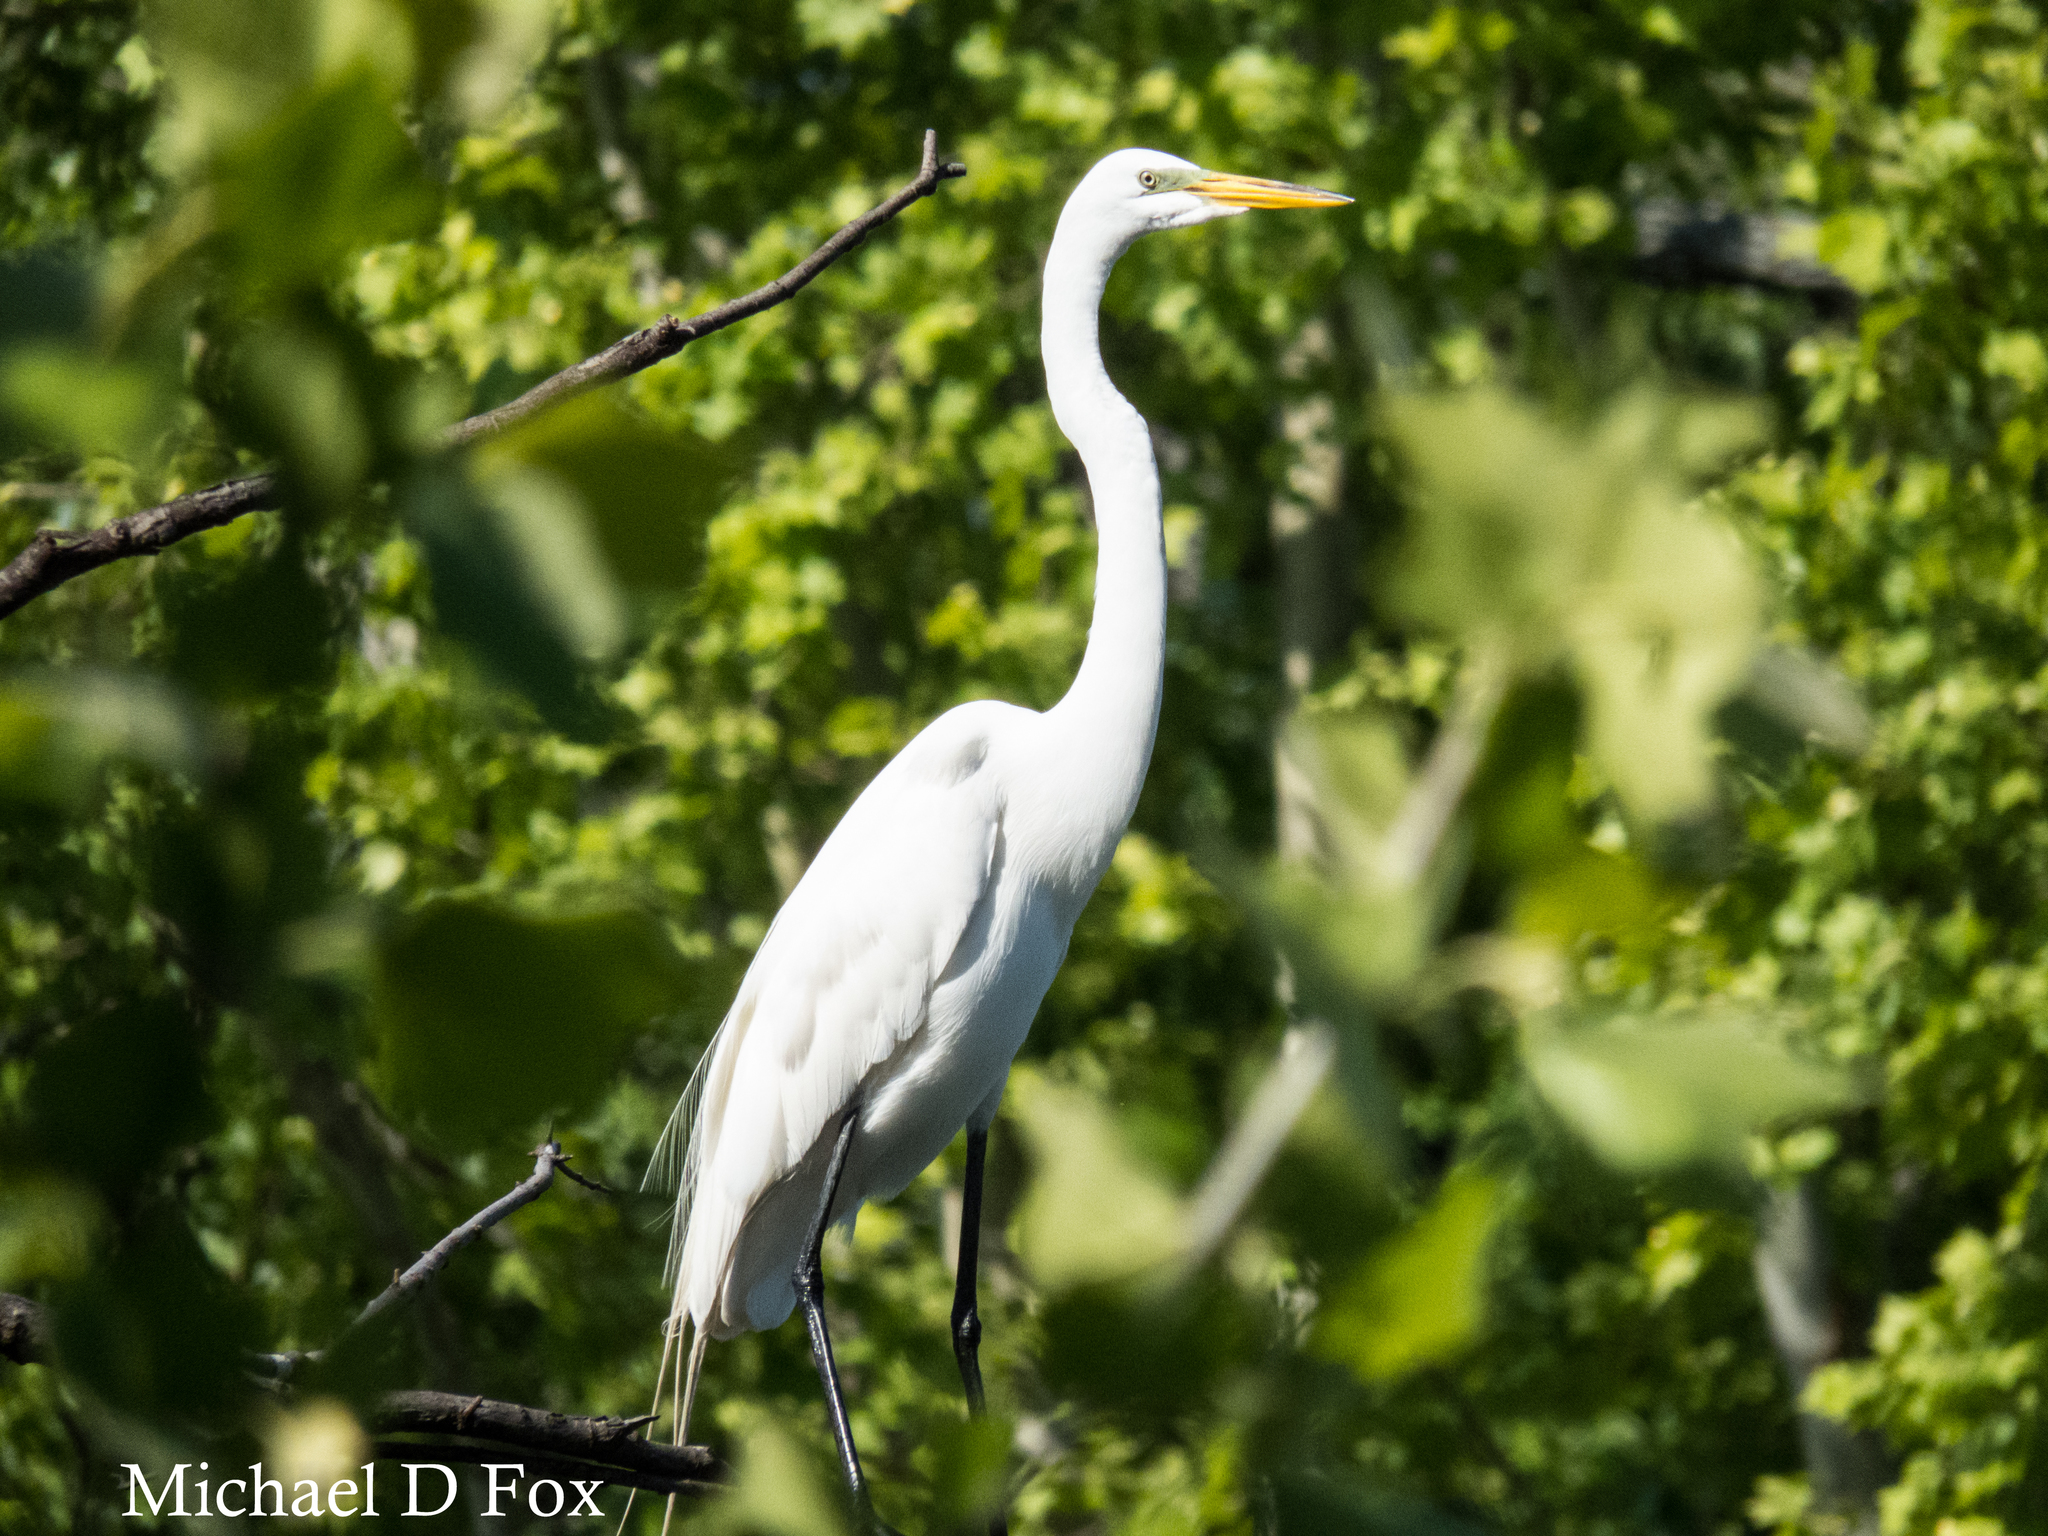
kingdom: Animalia
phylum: Chordata
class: Aves
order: Pelecaniformes
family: Ardeidae
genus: Ardea
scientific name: Ardea alba
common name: Great egret
